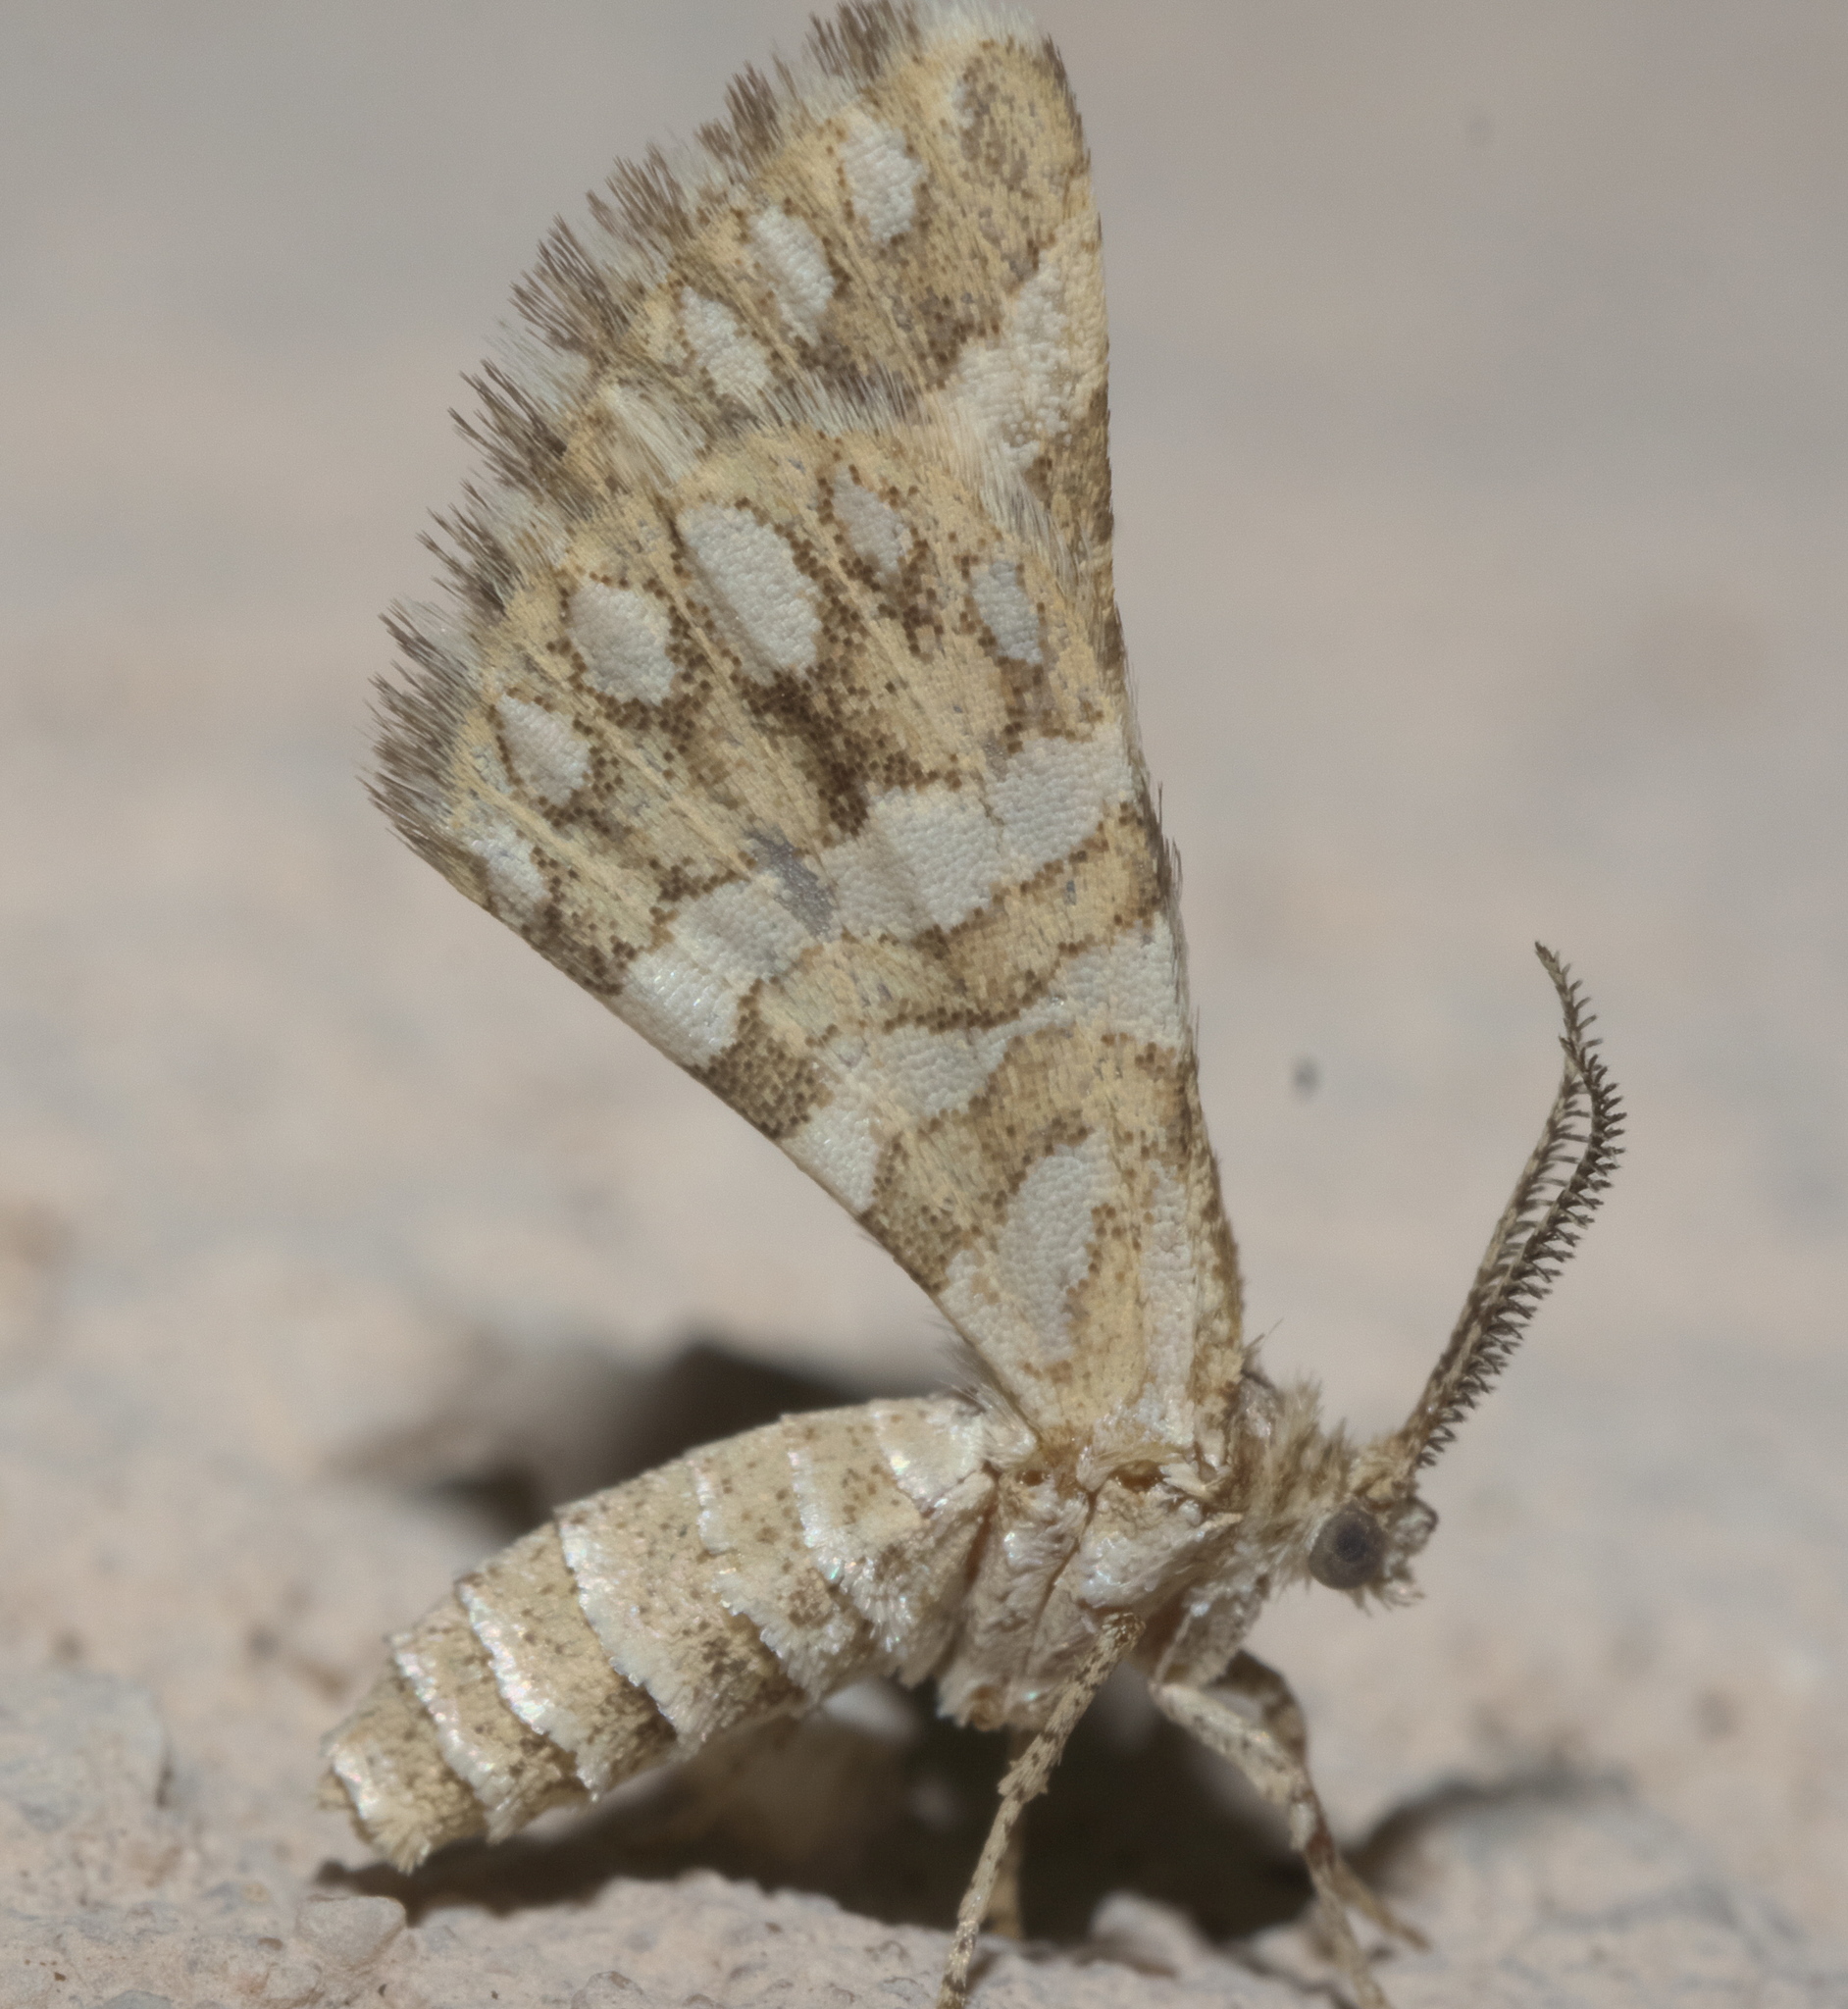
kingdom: Animalia
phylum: Arthropoda
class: Insecta
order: Lepidoptera
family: Geometridae
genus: Narraga
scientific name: Narraga fimetaria
